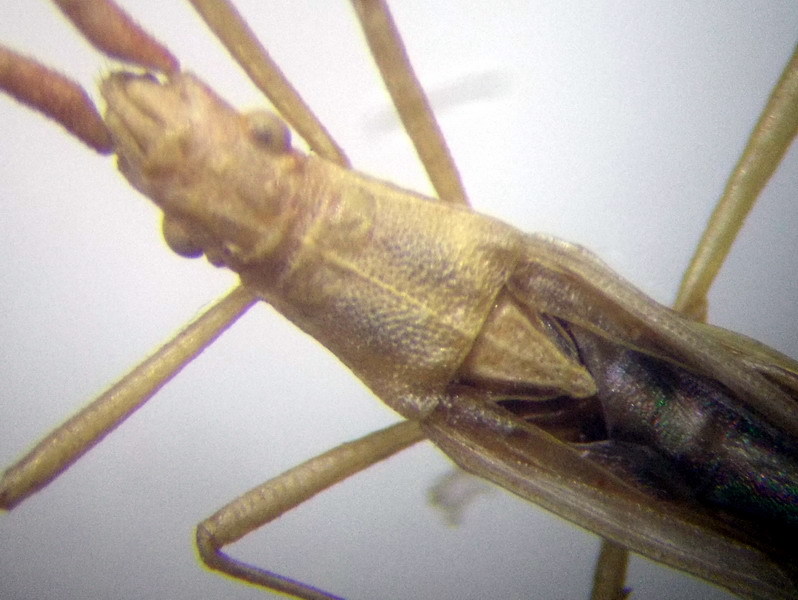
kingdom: Animalia
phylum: Arthropoda
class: Insecta
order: Hemiptera
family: Rhopalidae
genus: Chorosoma
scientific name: Chorosoma gracile
